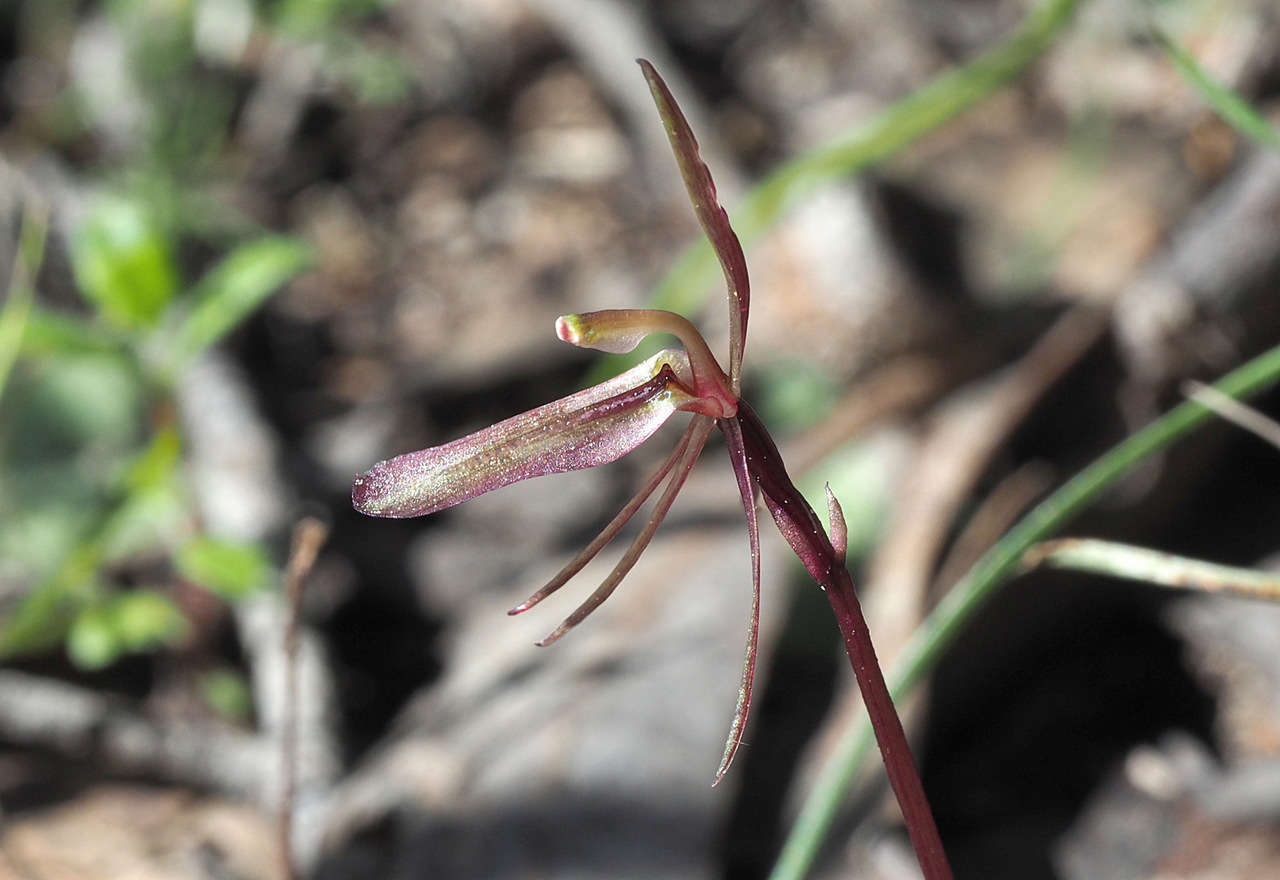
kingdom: Plantae
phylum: Tracheophyta
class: Liliopsida
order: Asparagales
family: Orchidaceae
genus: Cyrtostylis
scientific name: Cyrtostylis reniformis
